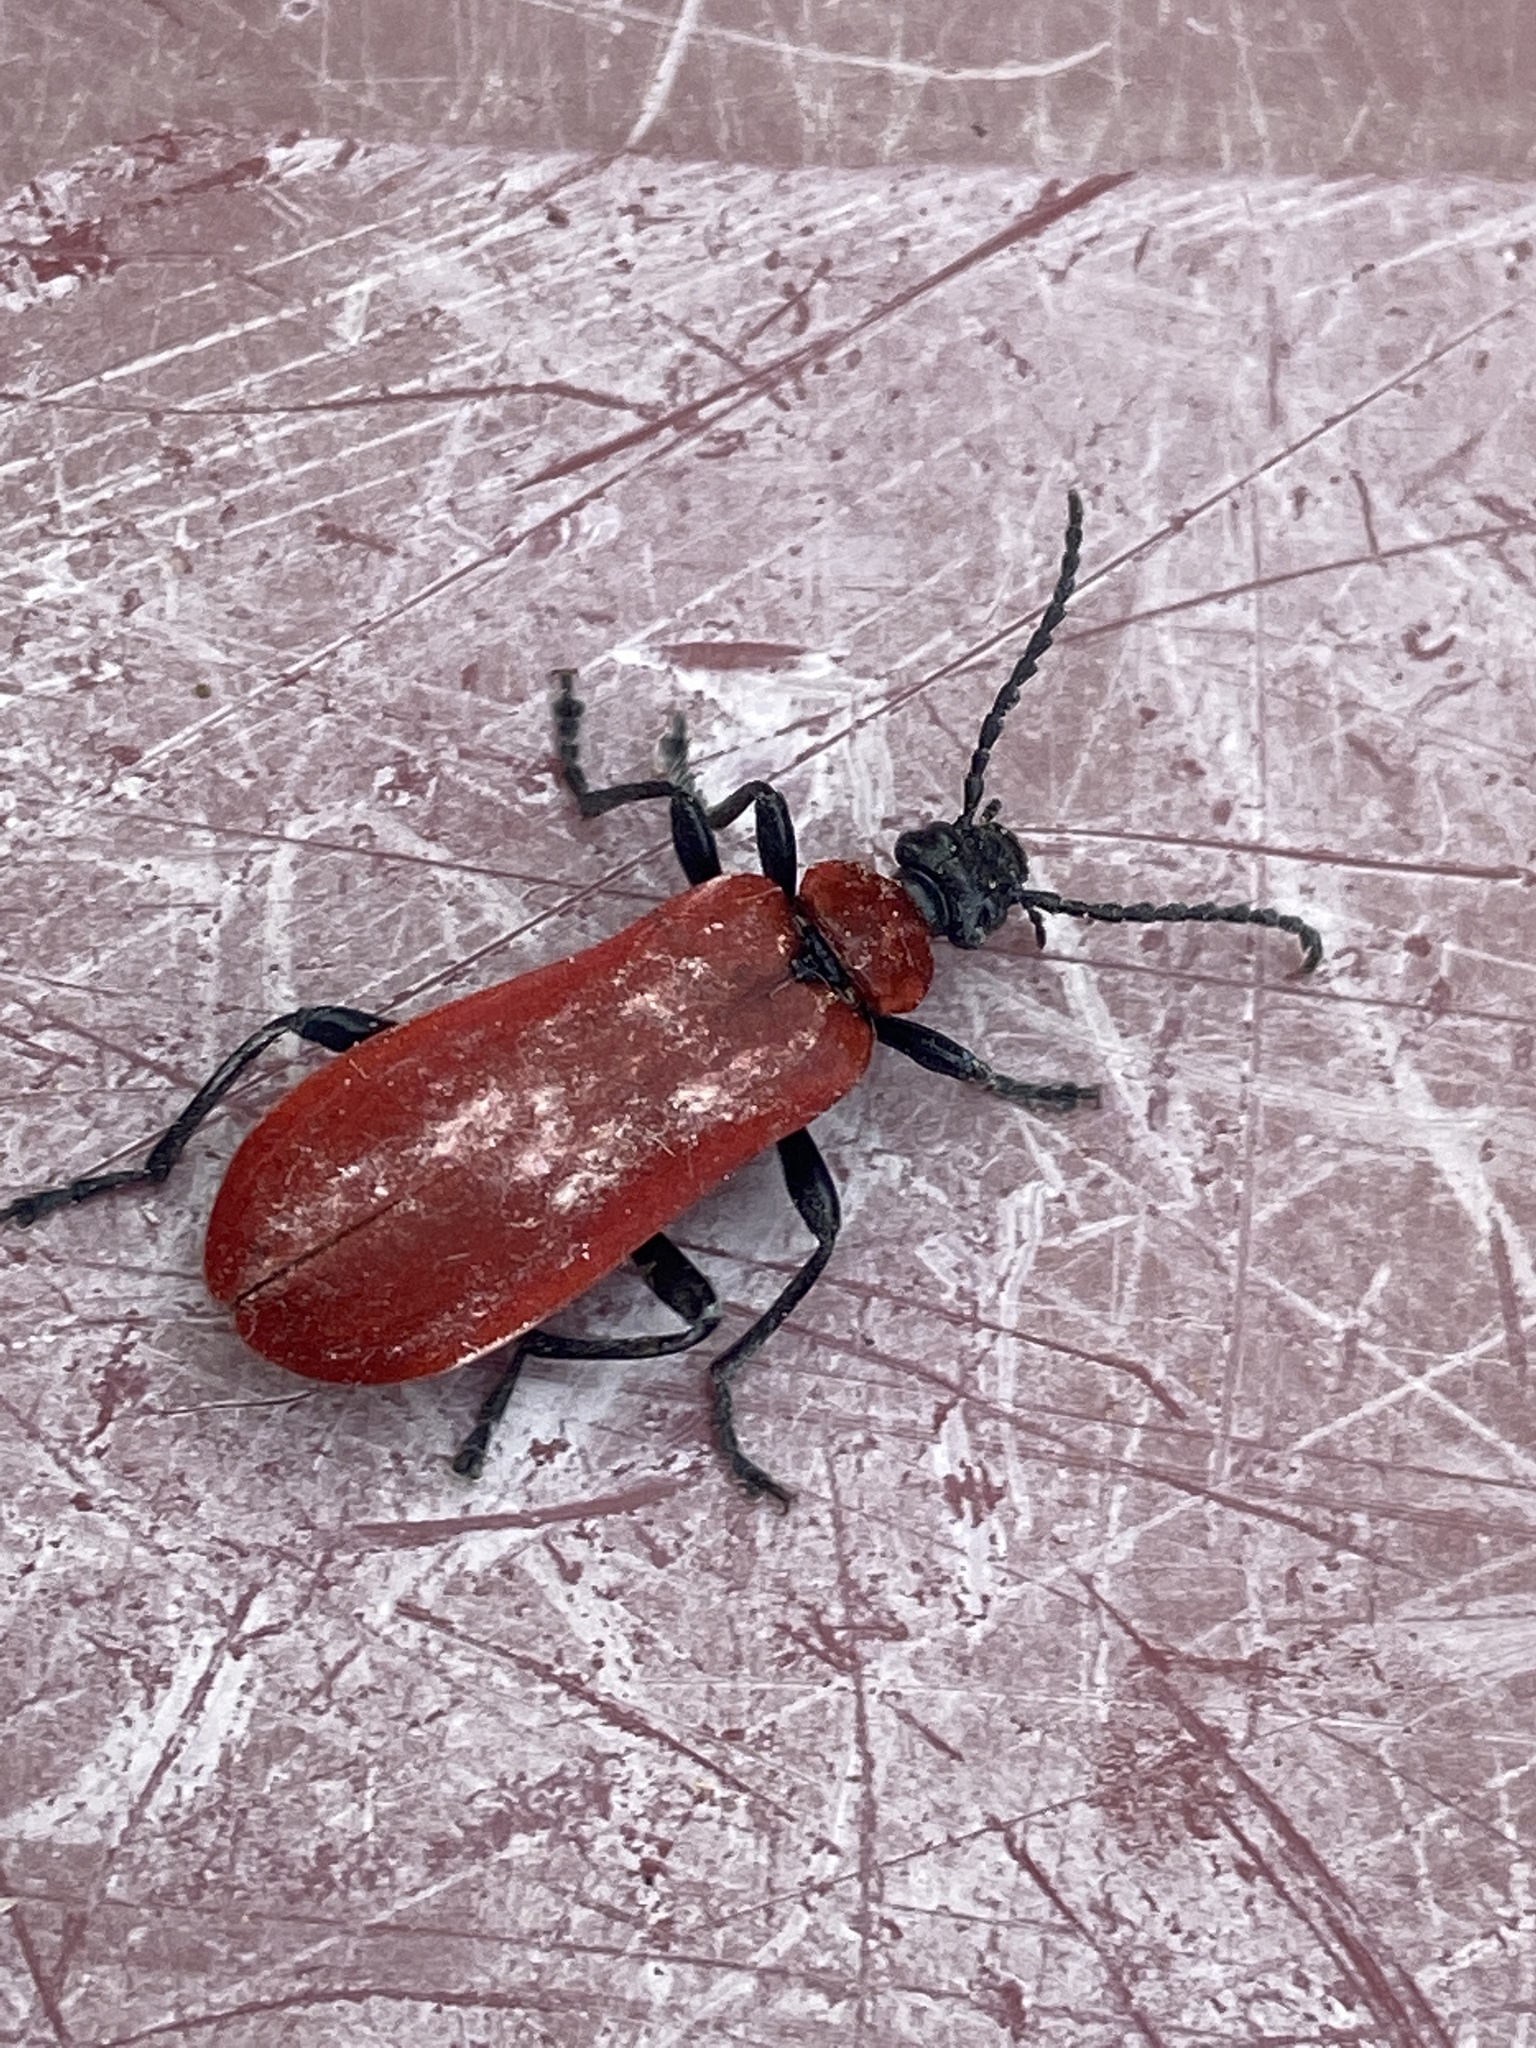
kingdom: Animalia
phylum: Arthropoda
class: Insecta
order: Coleoptera
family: Pyrochroidae
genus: Pyrochroa
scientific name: Pyrochroa coccinea
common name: Black-headed cardinal beetle
